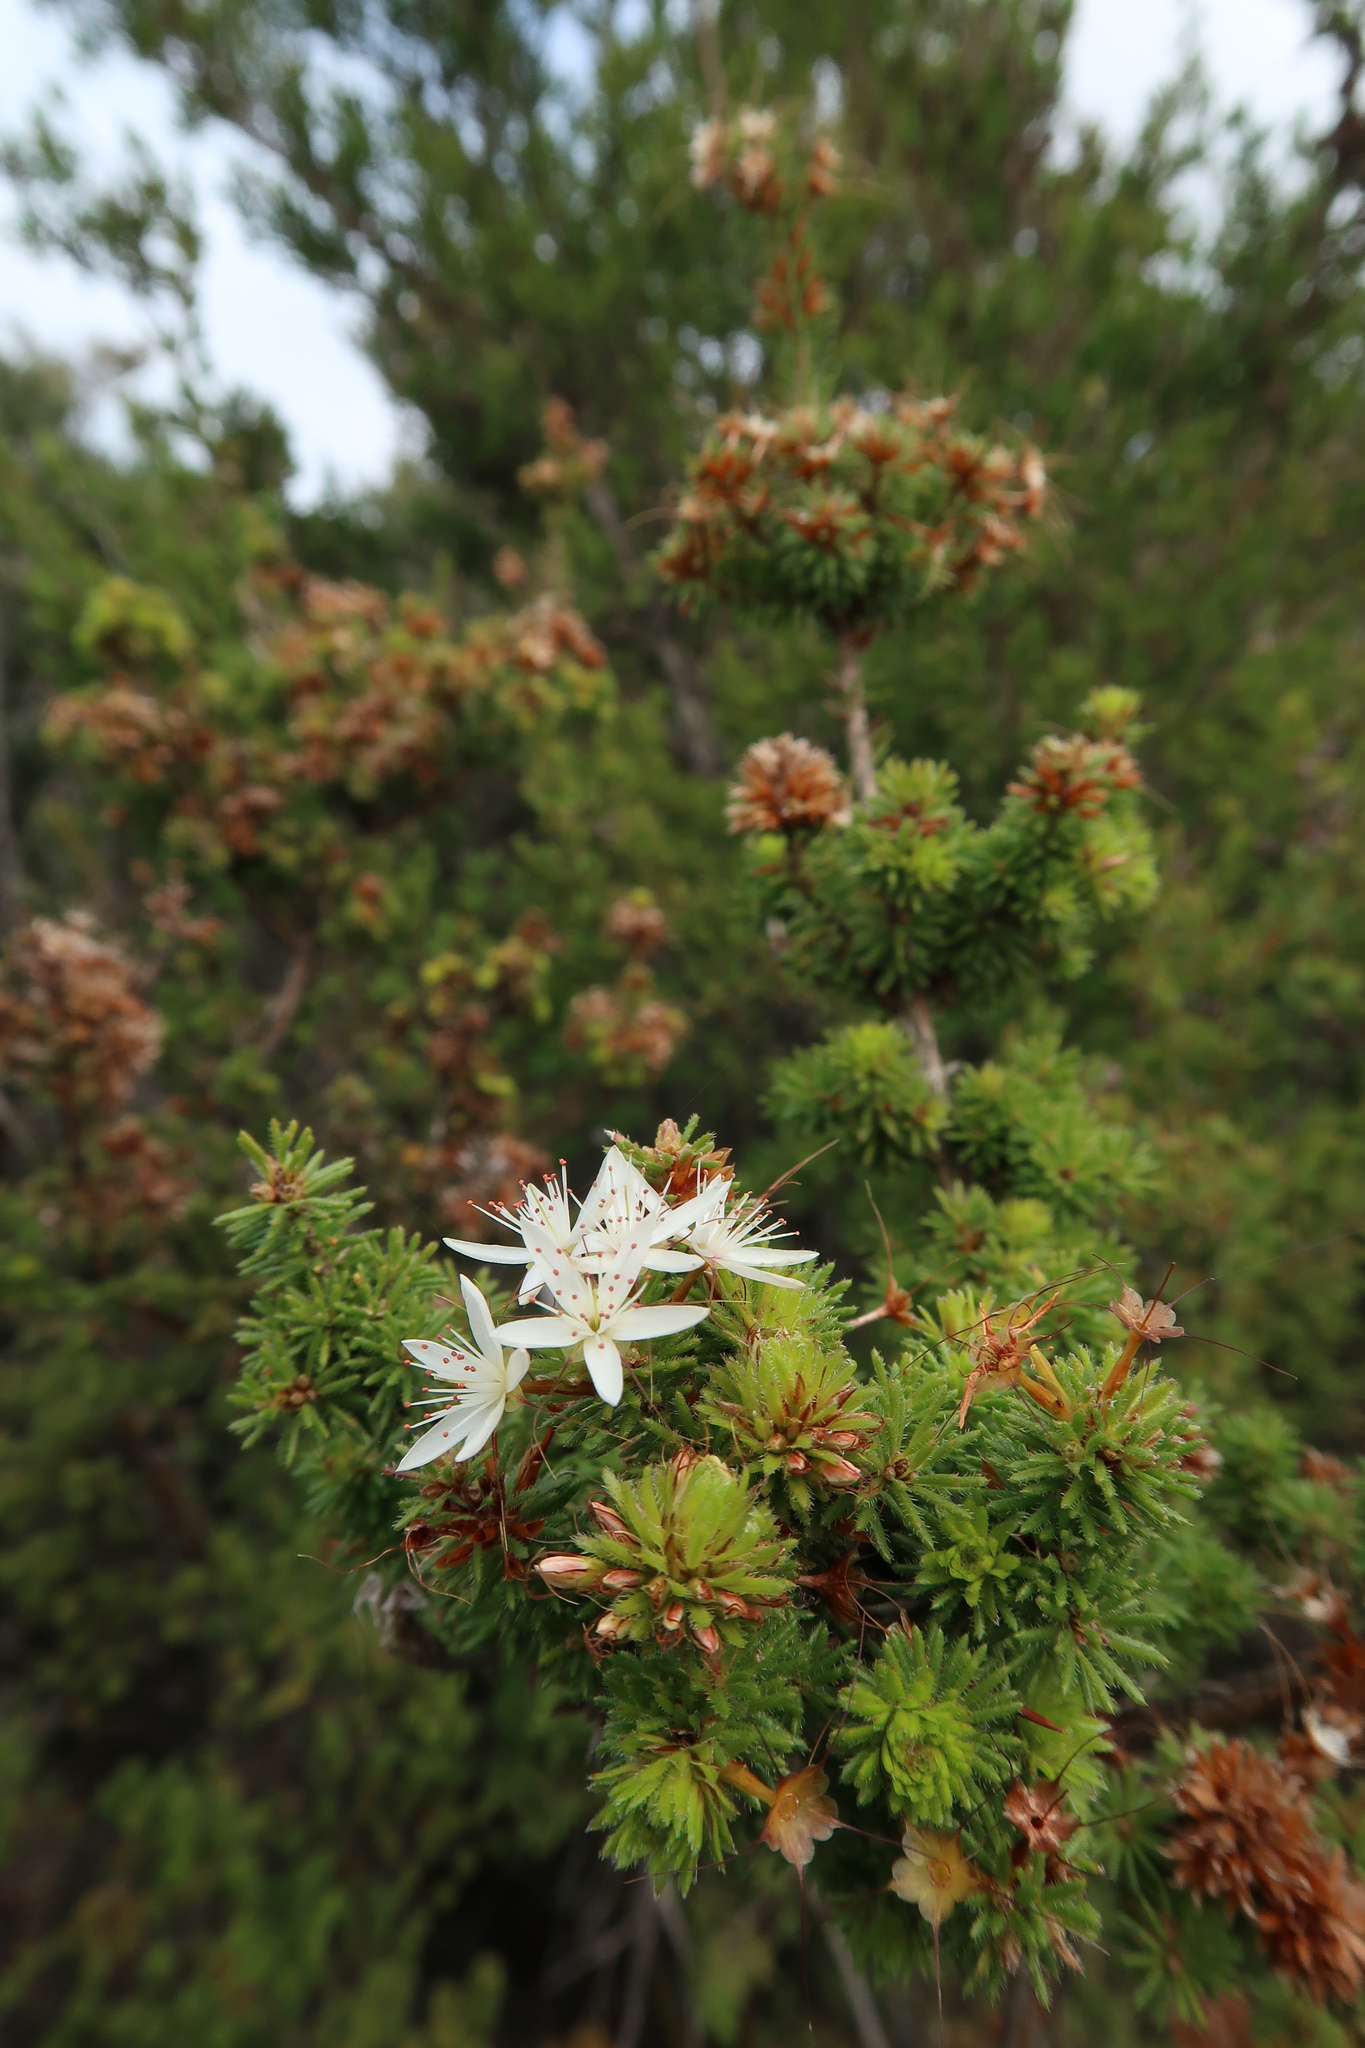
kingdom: Plantae
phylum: Tracheophyta
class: Magnoliopsida
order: Myrtales
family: Myrtaceae
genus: Calytrix
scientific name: Calytrix tetragona
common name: Common fringe myrtle
